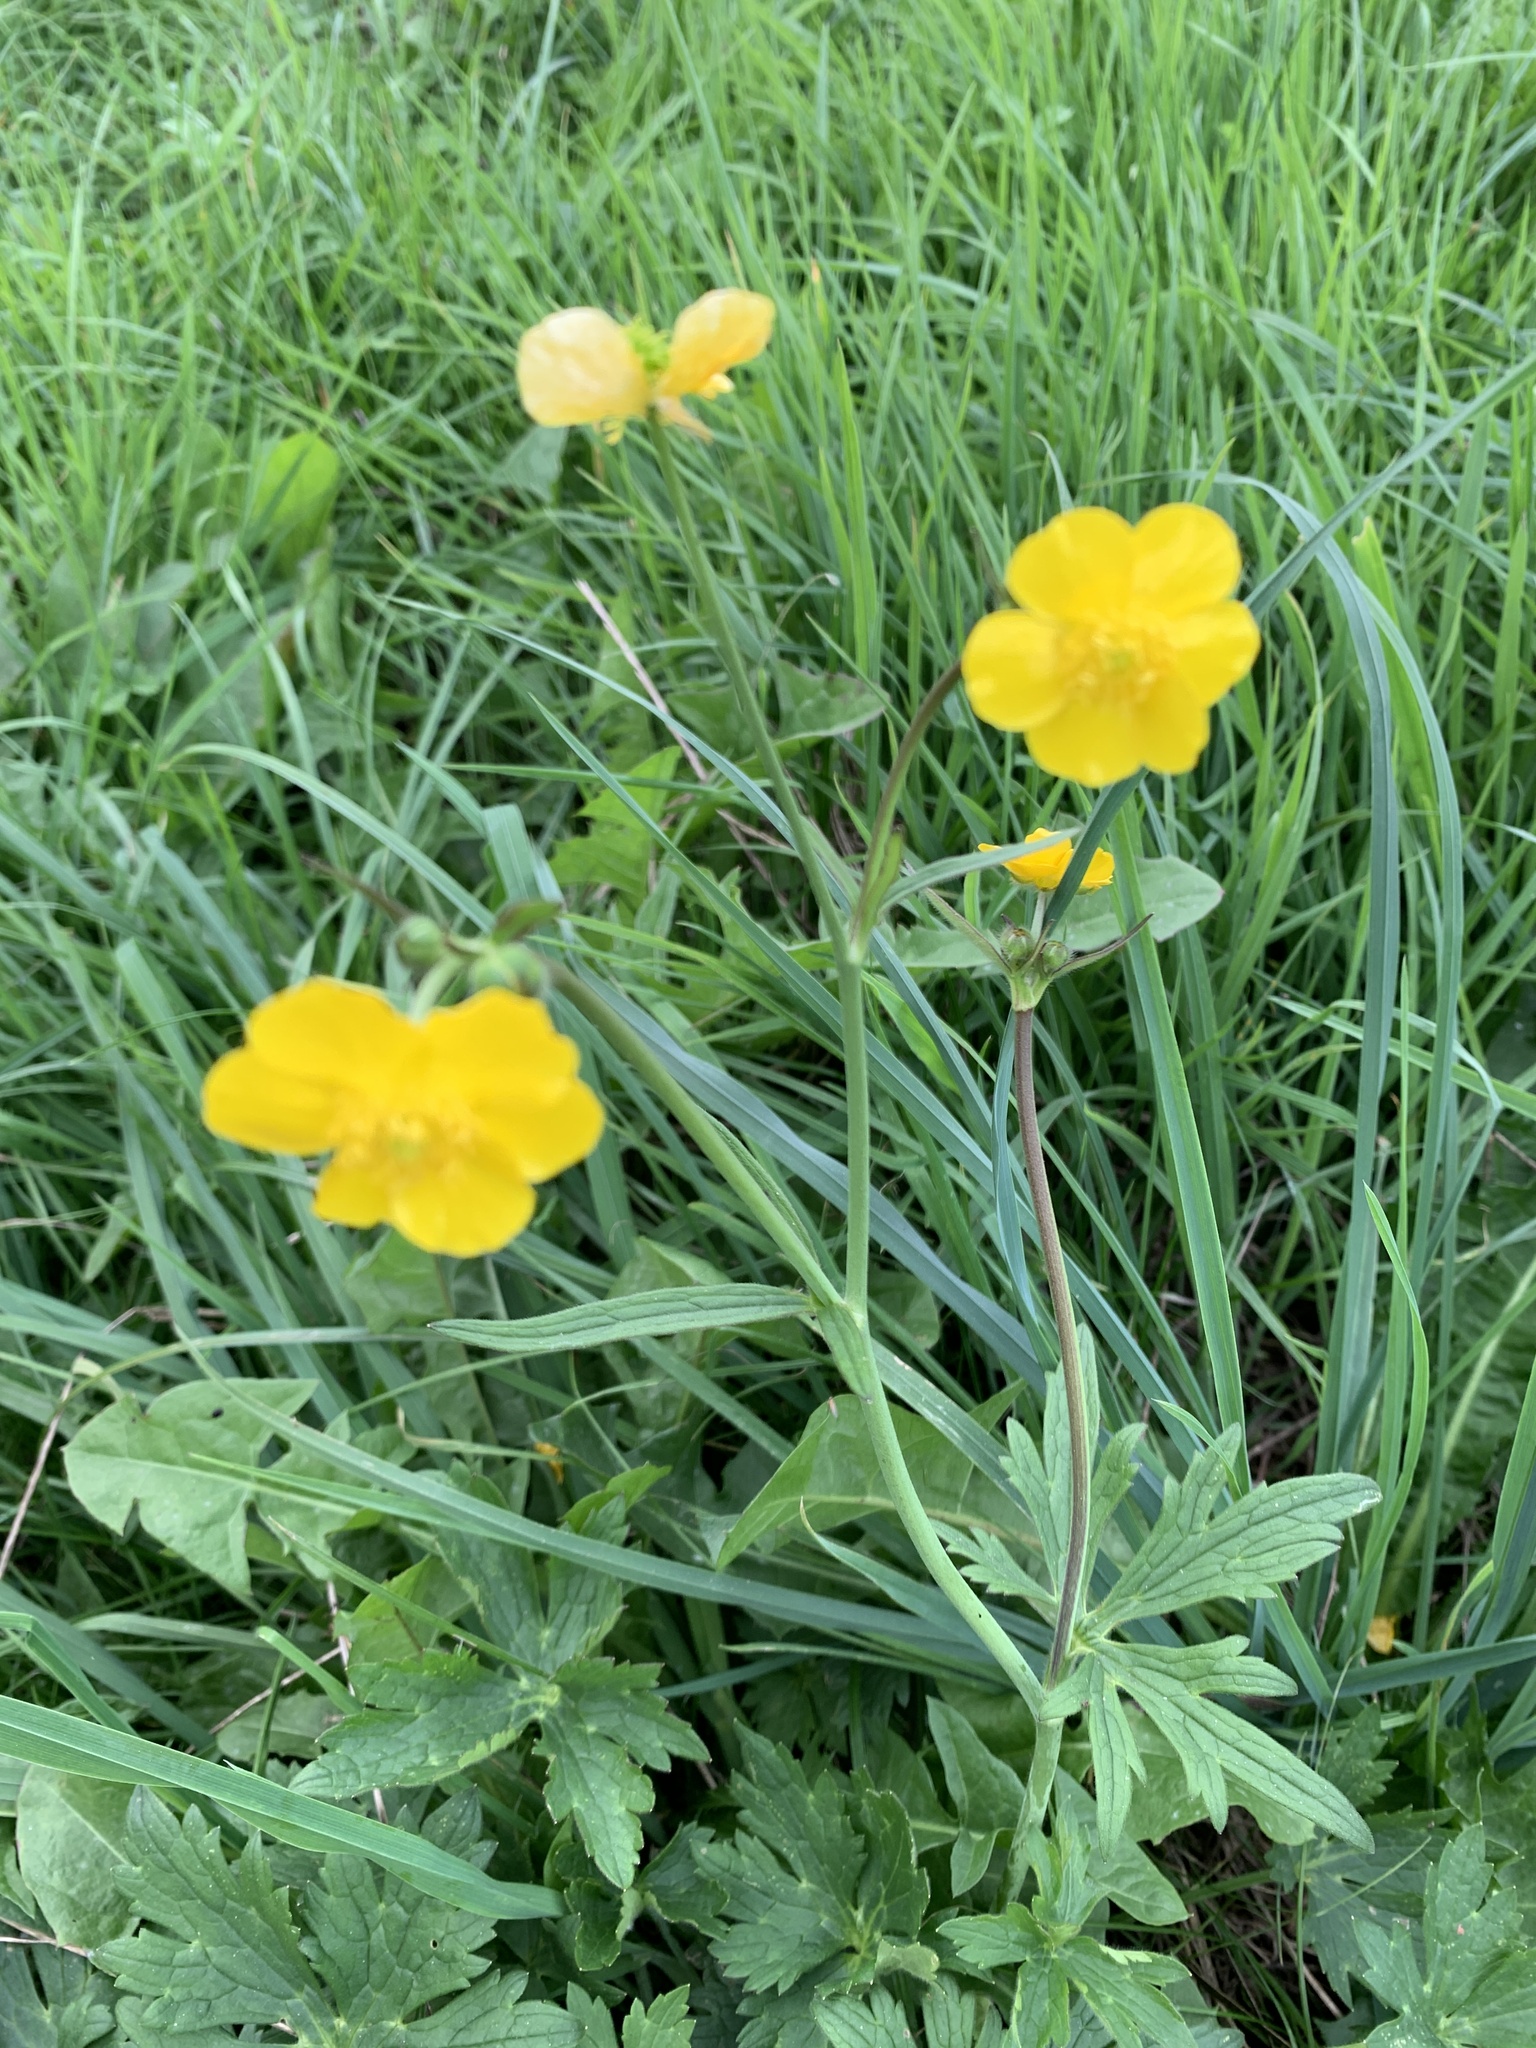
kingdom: Plantae
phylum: Tracheophyta
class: Magnoliopsida
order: Ranunculales
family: Ranunculaceae
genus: Ranunculus
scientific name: Ranunculus acris
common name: Meadow buttercup
